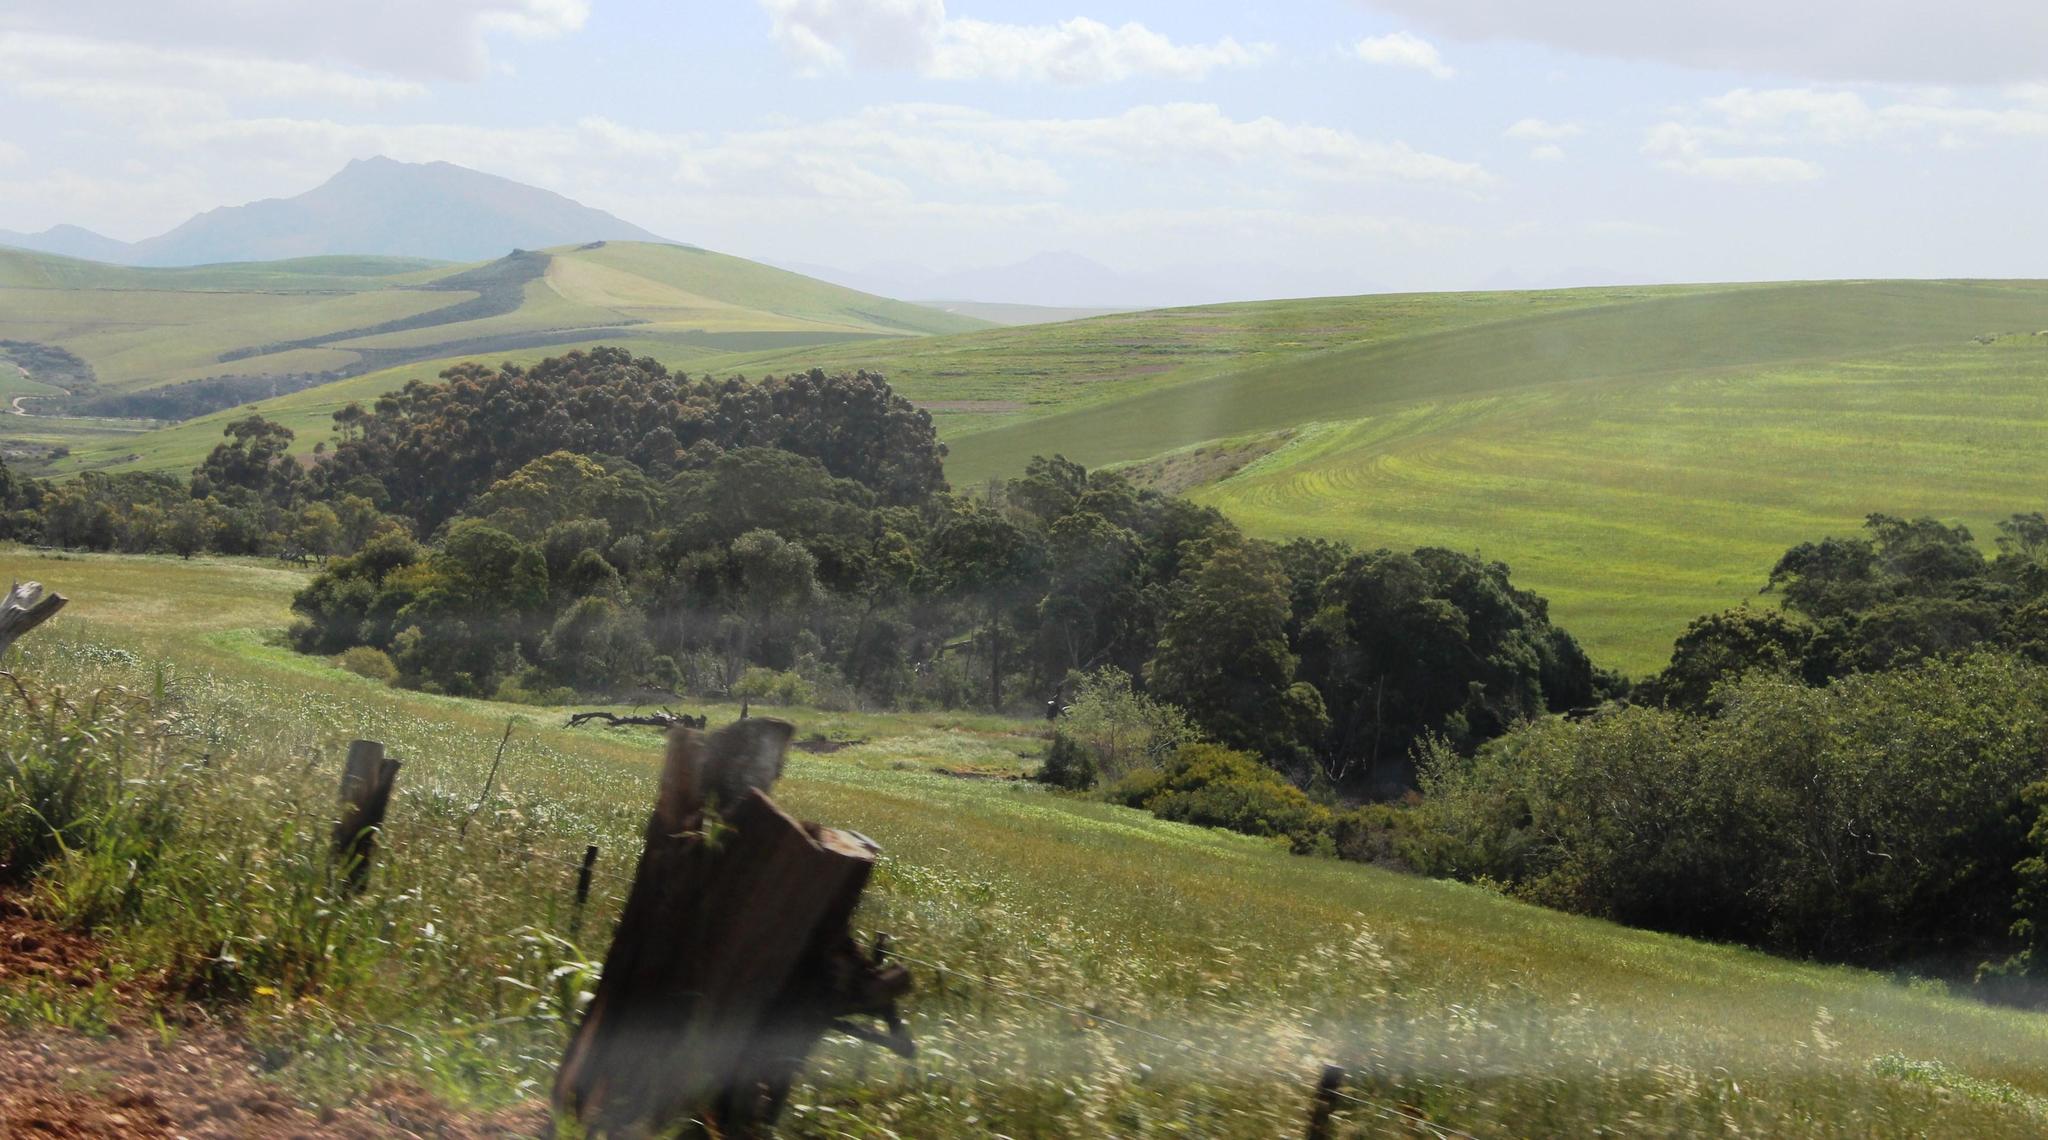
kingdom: Plantae
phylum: Tracheophyta
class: Magnoliopsida
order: Fabales
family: Fabaceae
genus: Acacia
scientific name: Acacia mearnsii
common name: Black wattle
